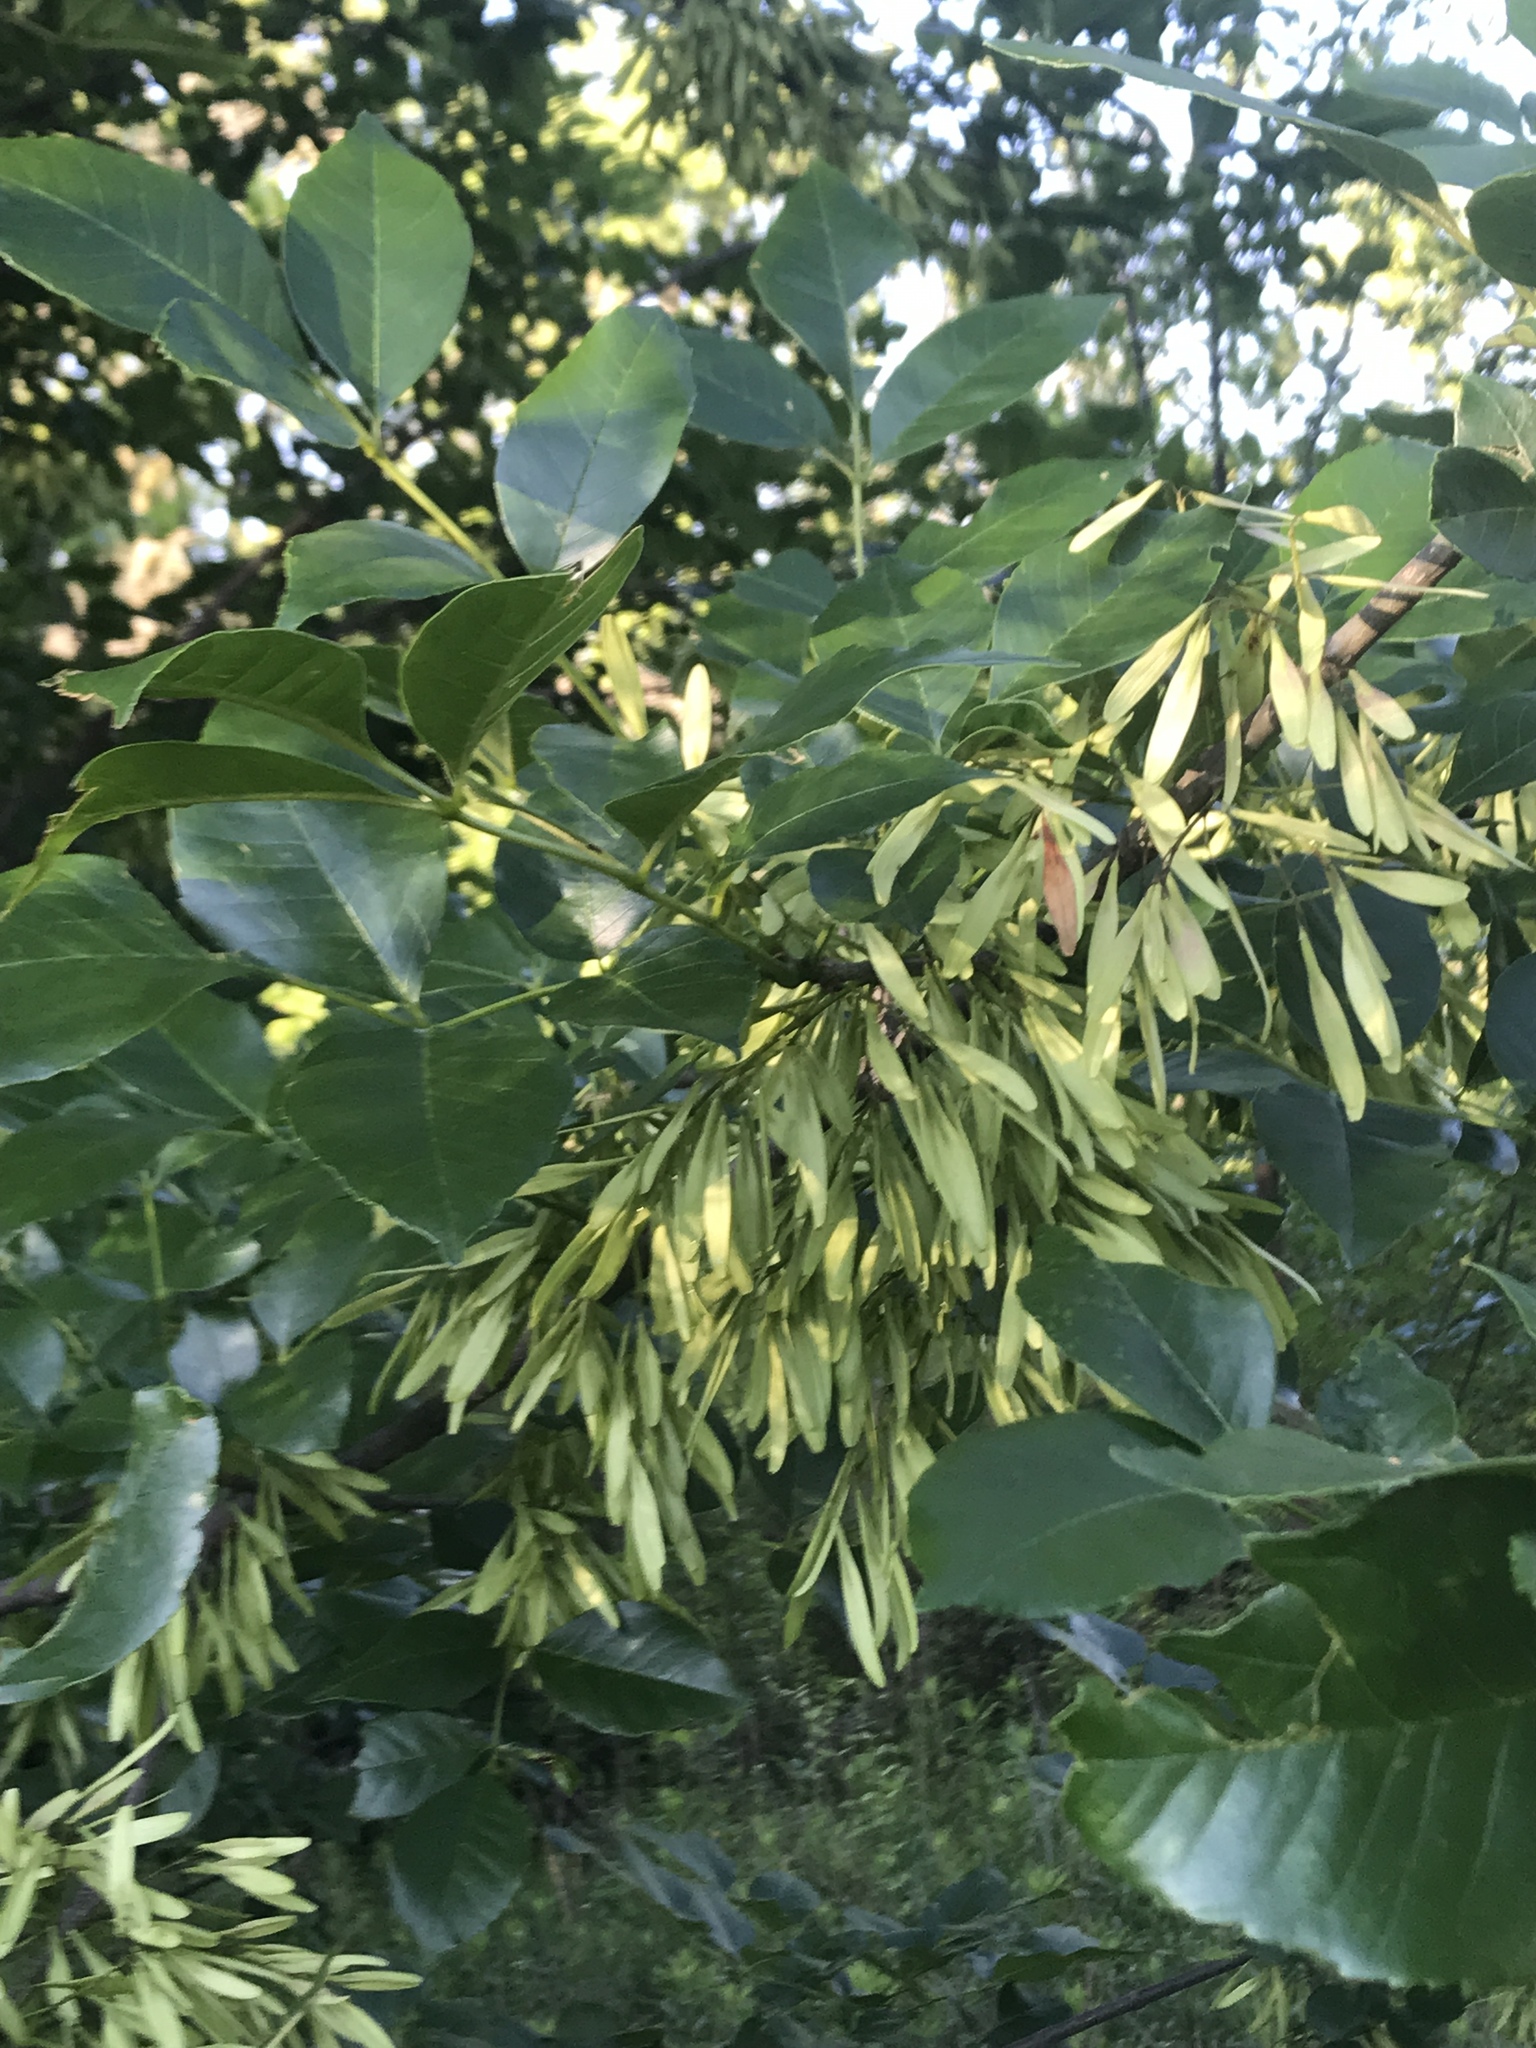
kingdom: Plantae
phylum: Tracheophyta
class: Magnoliopsida
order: Lamiales
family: Oleaceae
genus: Fraxinus
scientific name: Fraxinus pennsylvanica
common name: Green ash
